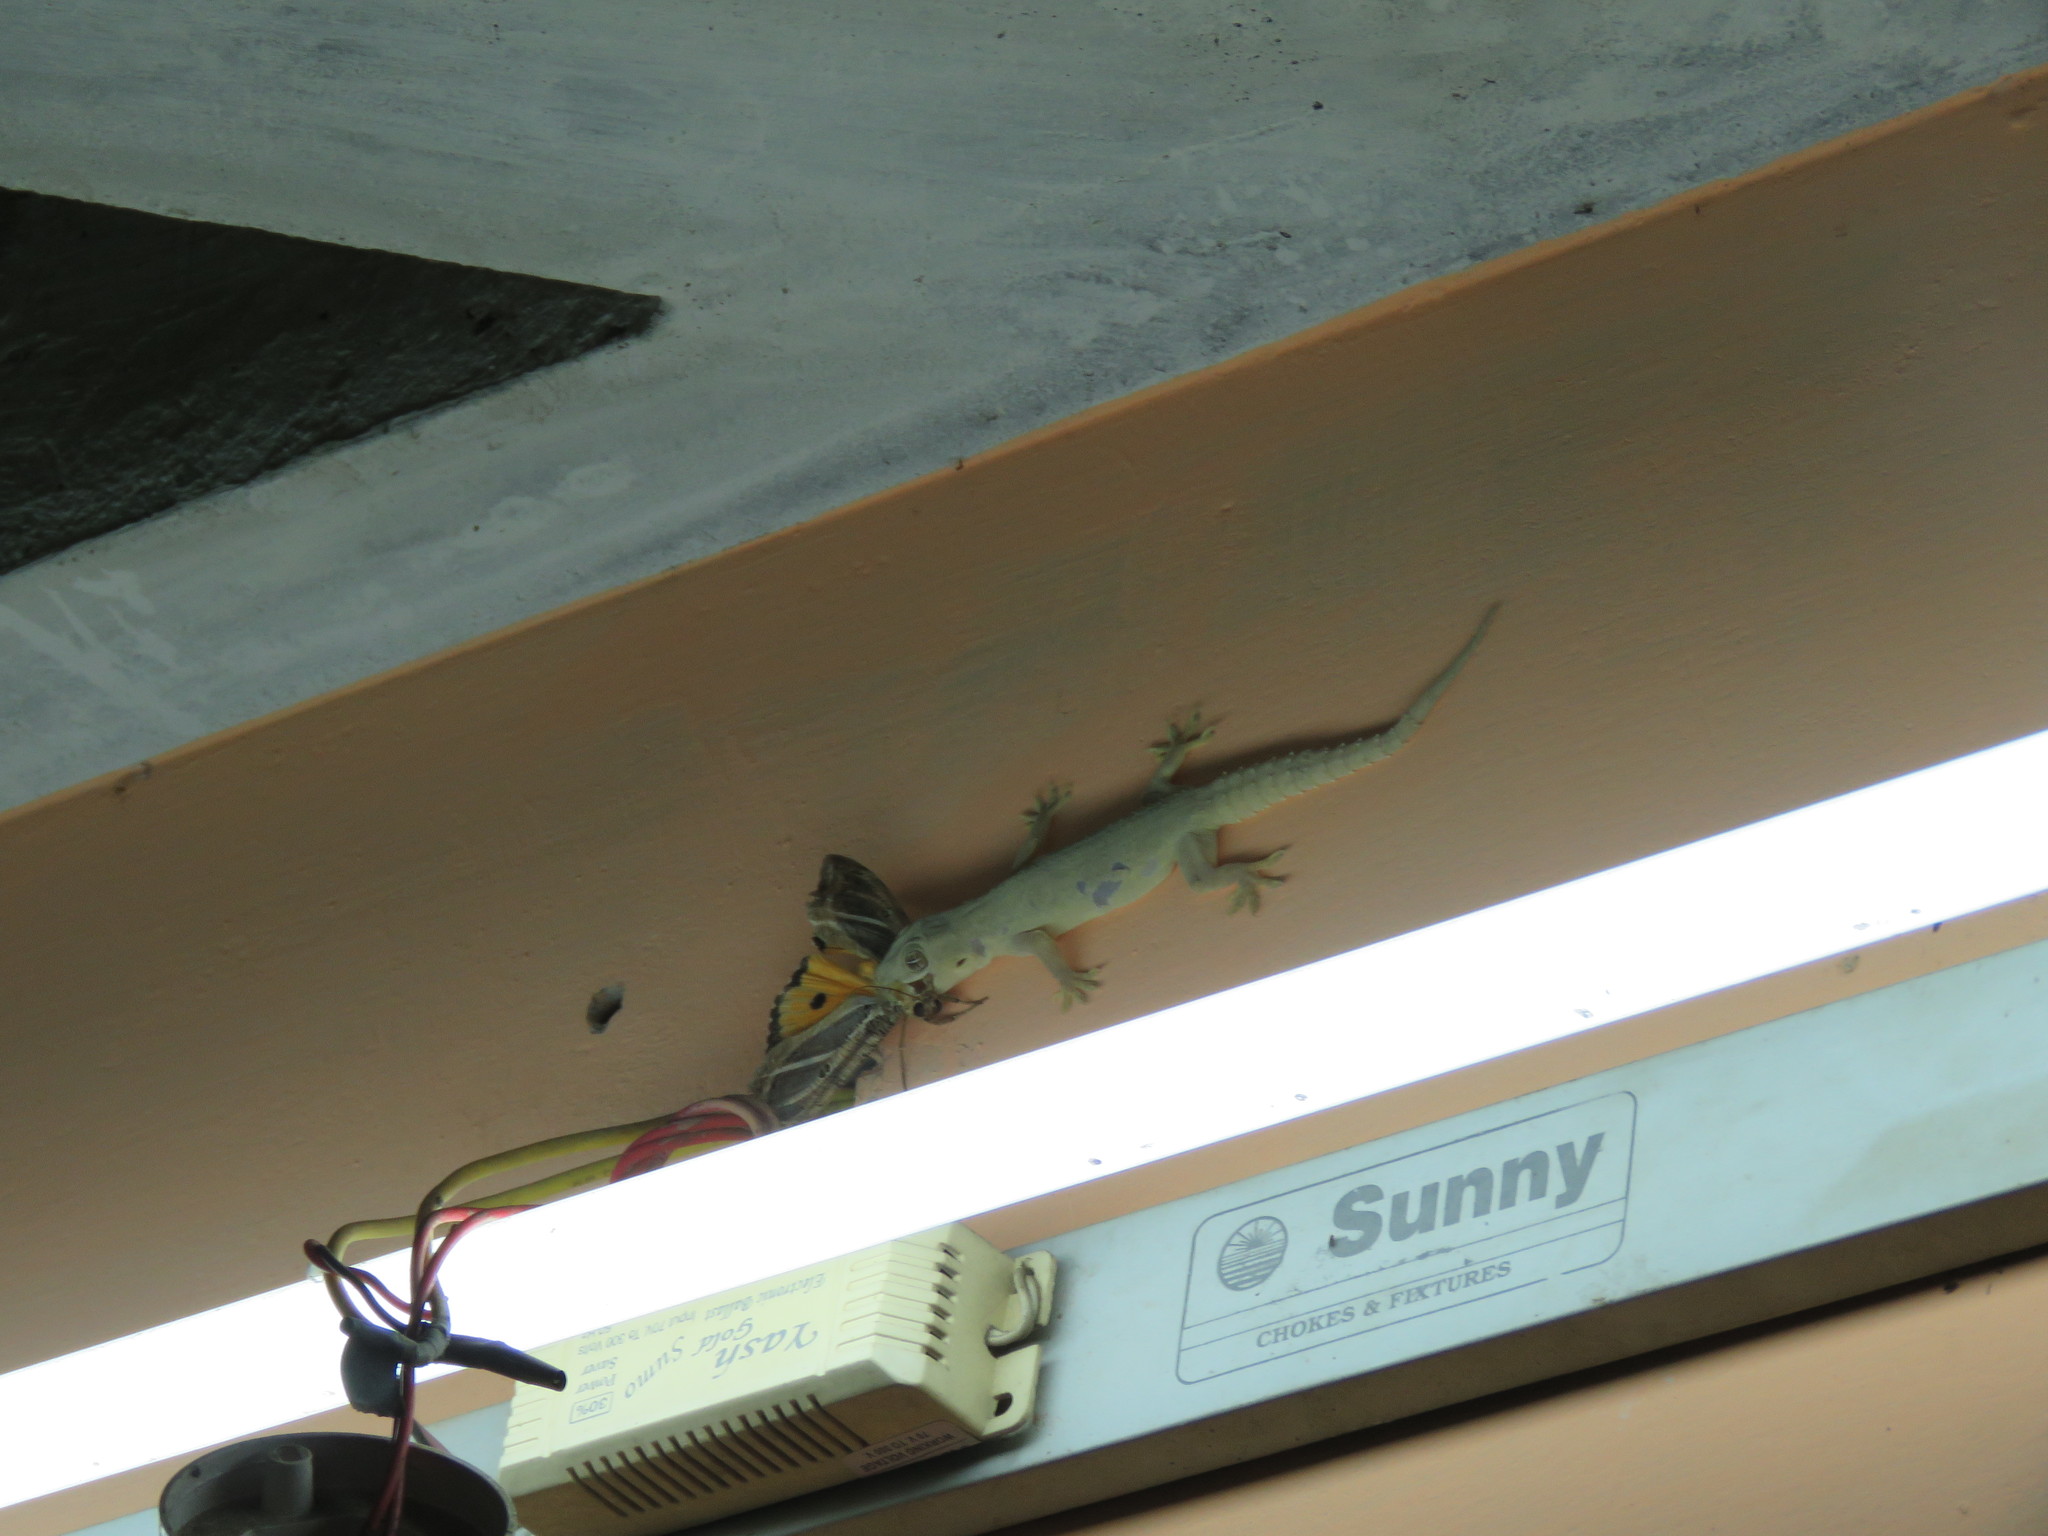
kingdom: Animalia
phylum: Chordata
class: Squamata
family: Gekkonidae
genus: Hemidactylus
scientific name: Hemidactylus flaviviridis
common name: Northern house gecko
